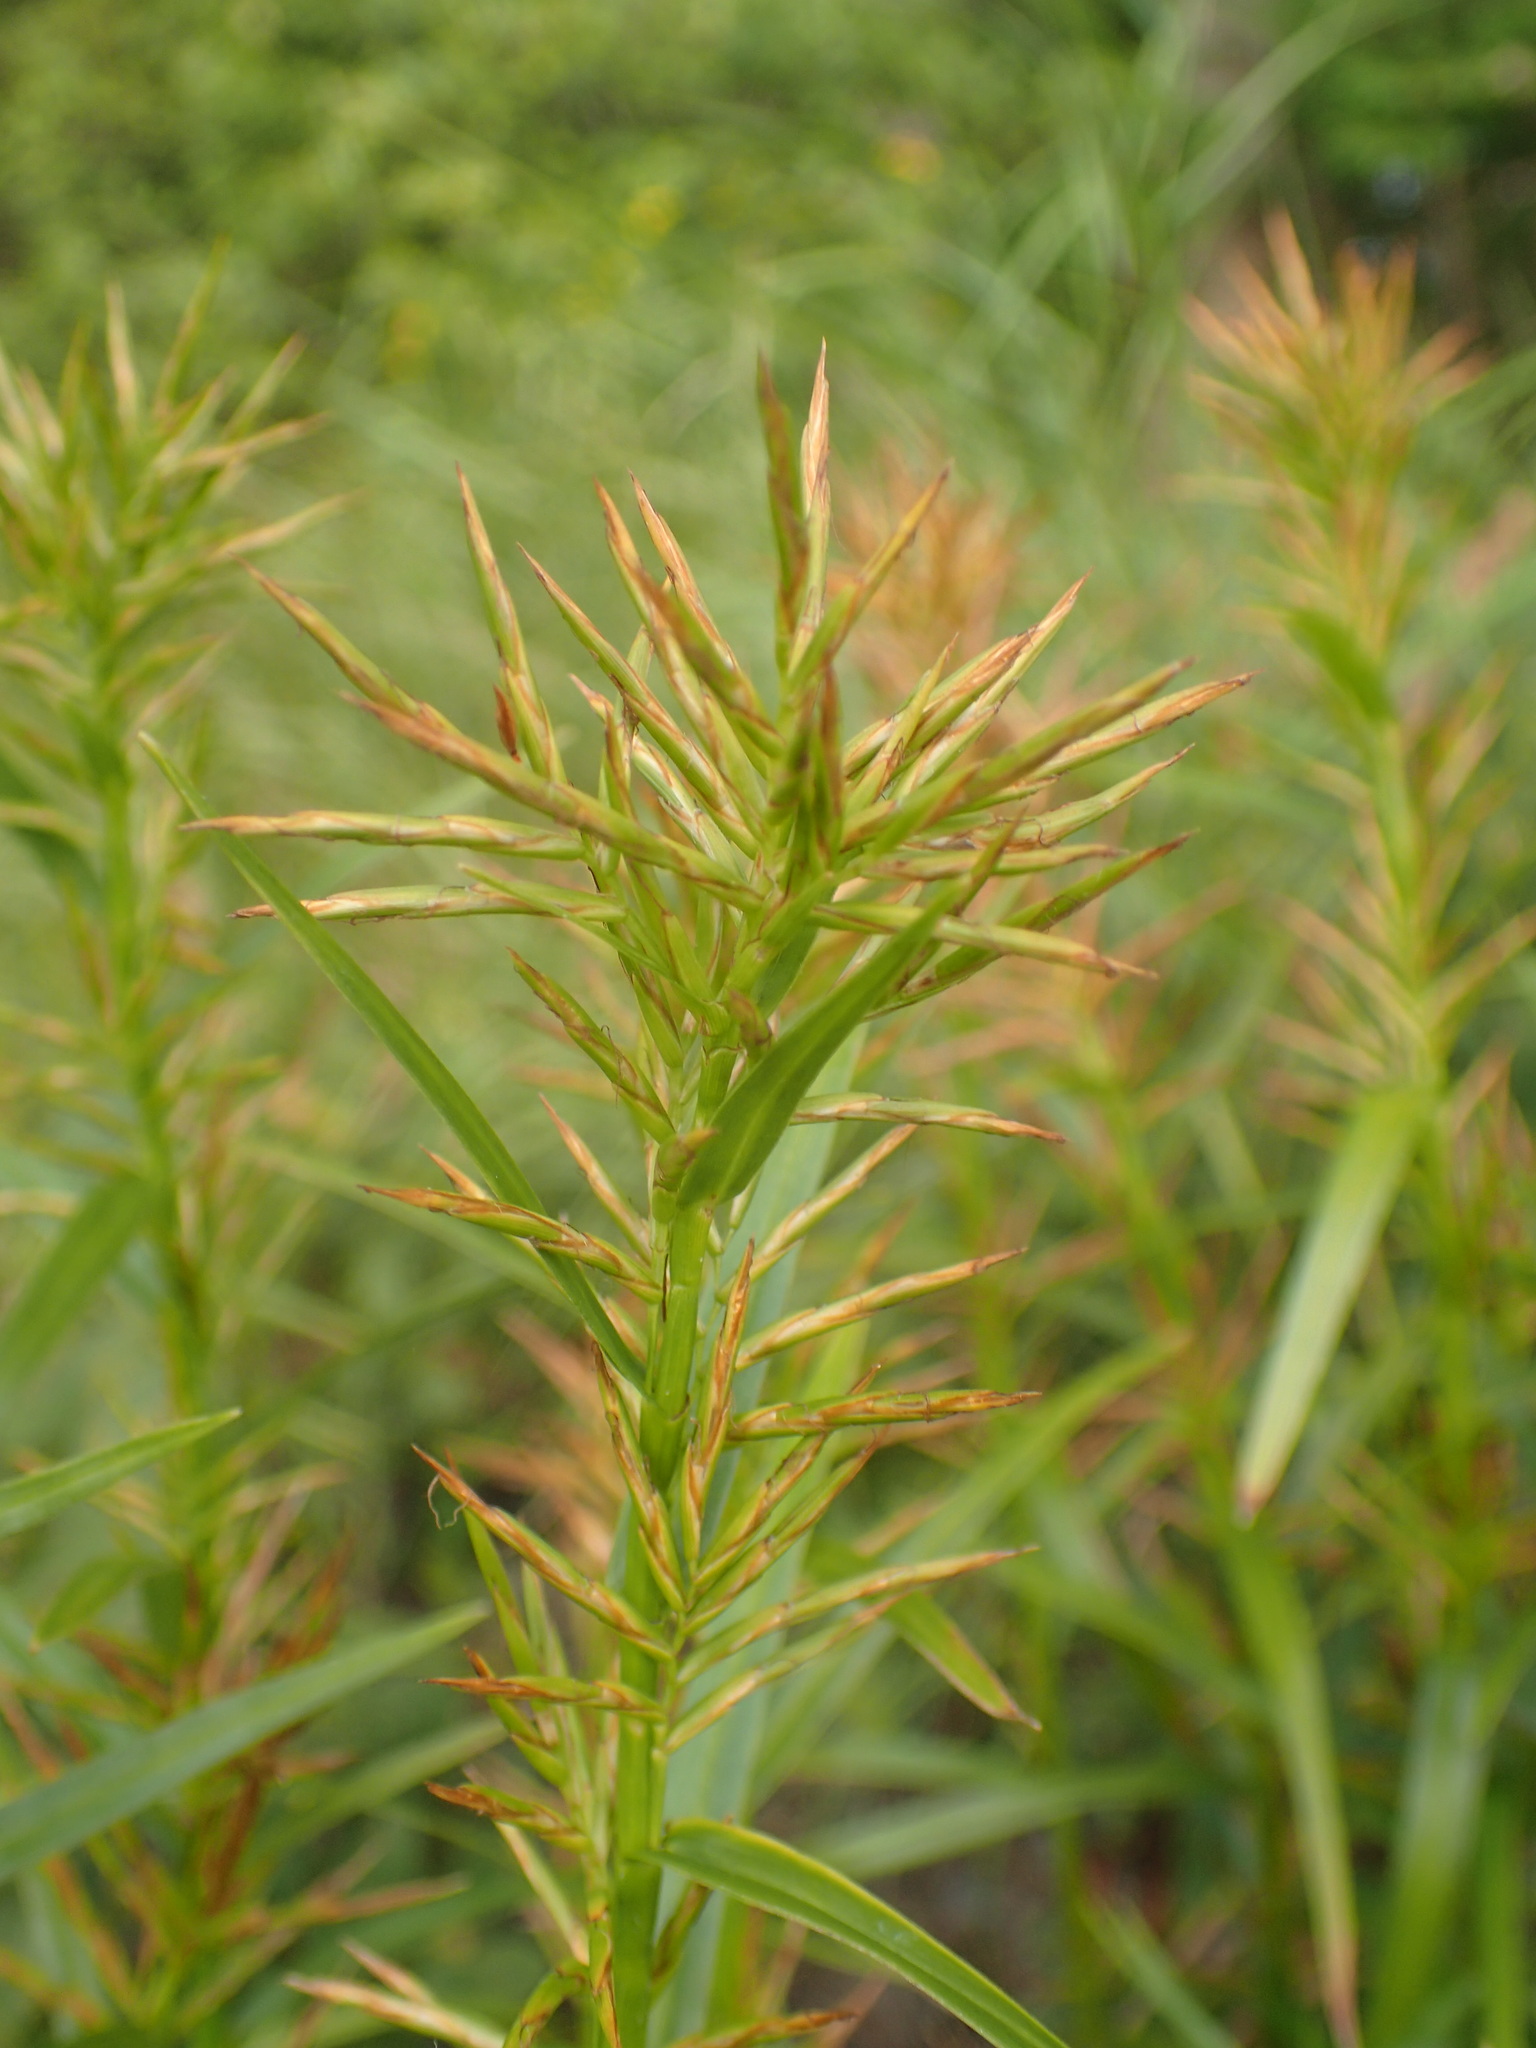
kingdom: Plantae
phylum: Tracheophyta
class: Liliopsida
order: Poales
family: Cyperaceae
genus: Dulichium
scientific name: Dulichium arundinaceum
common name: Three-way sedge
